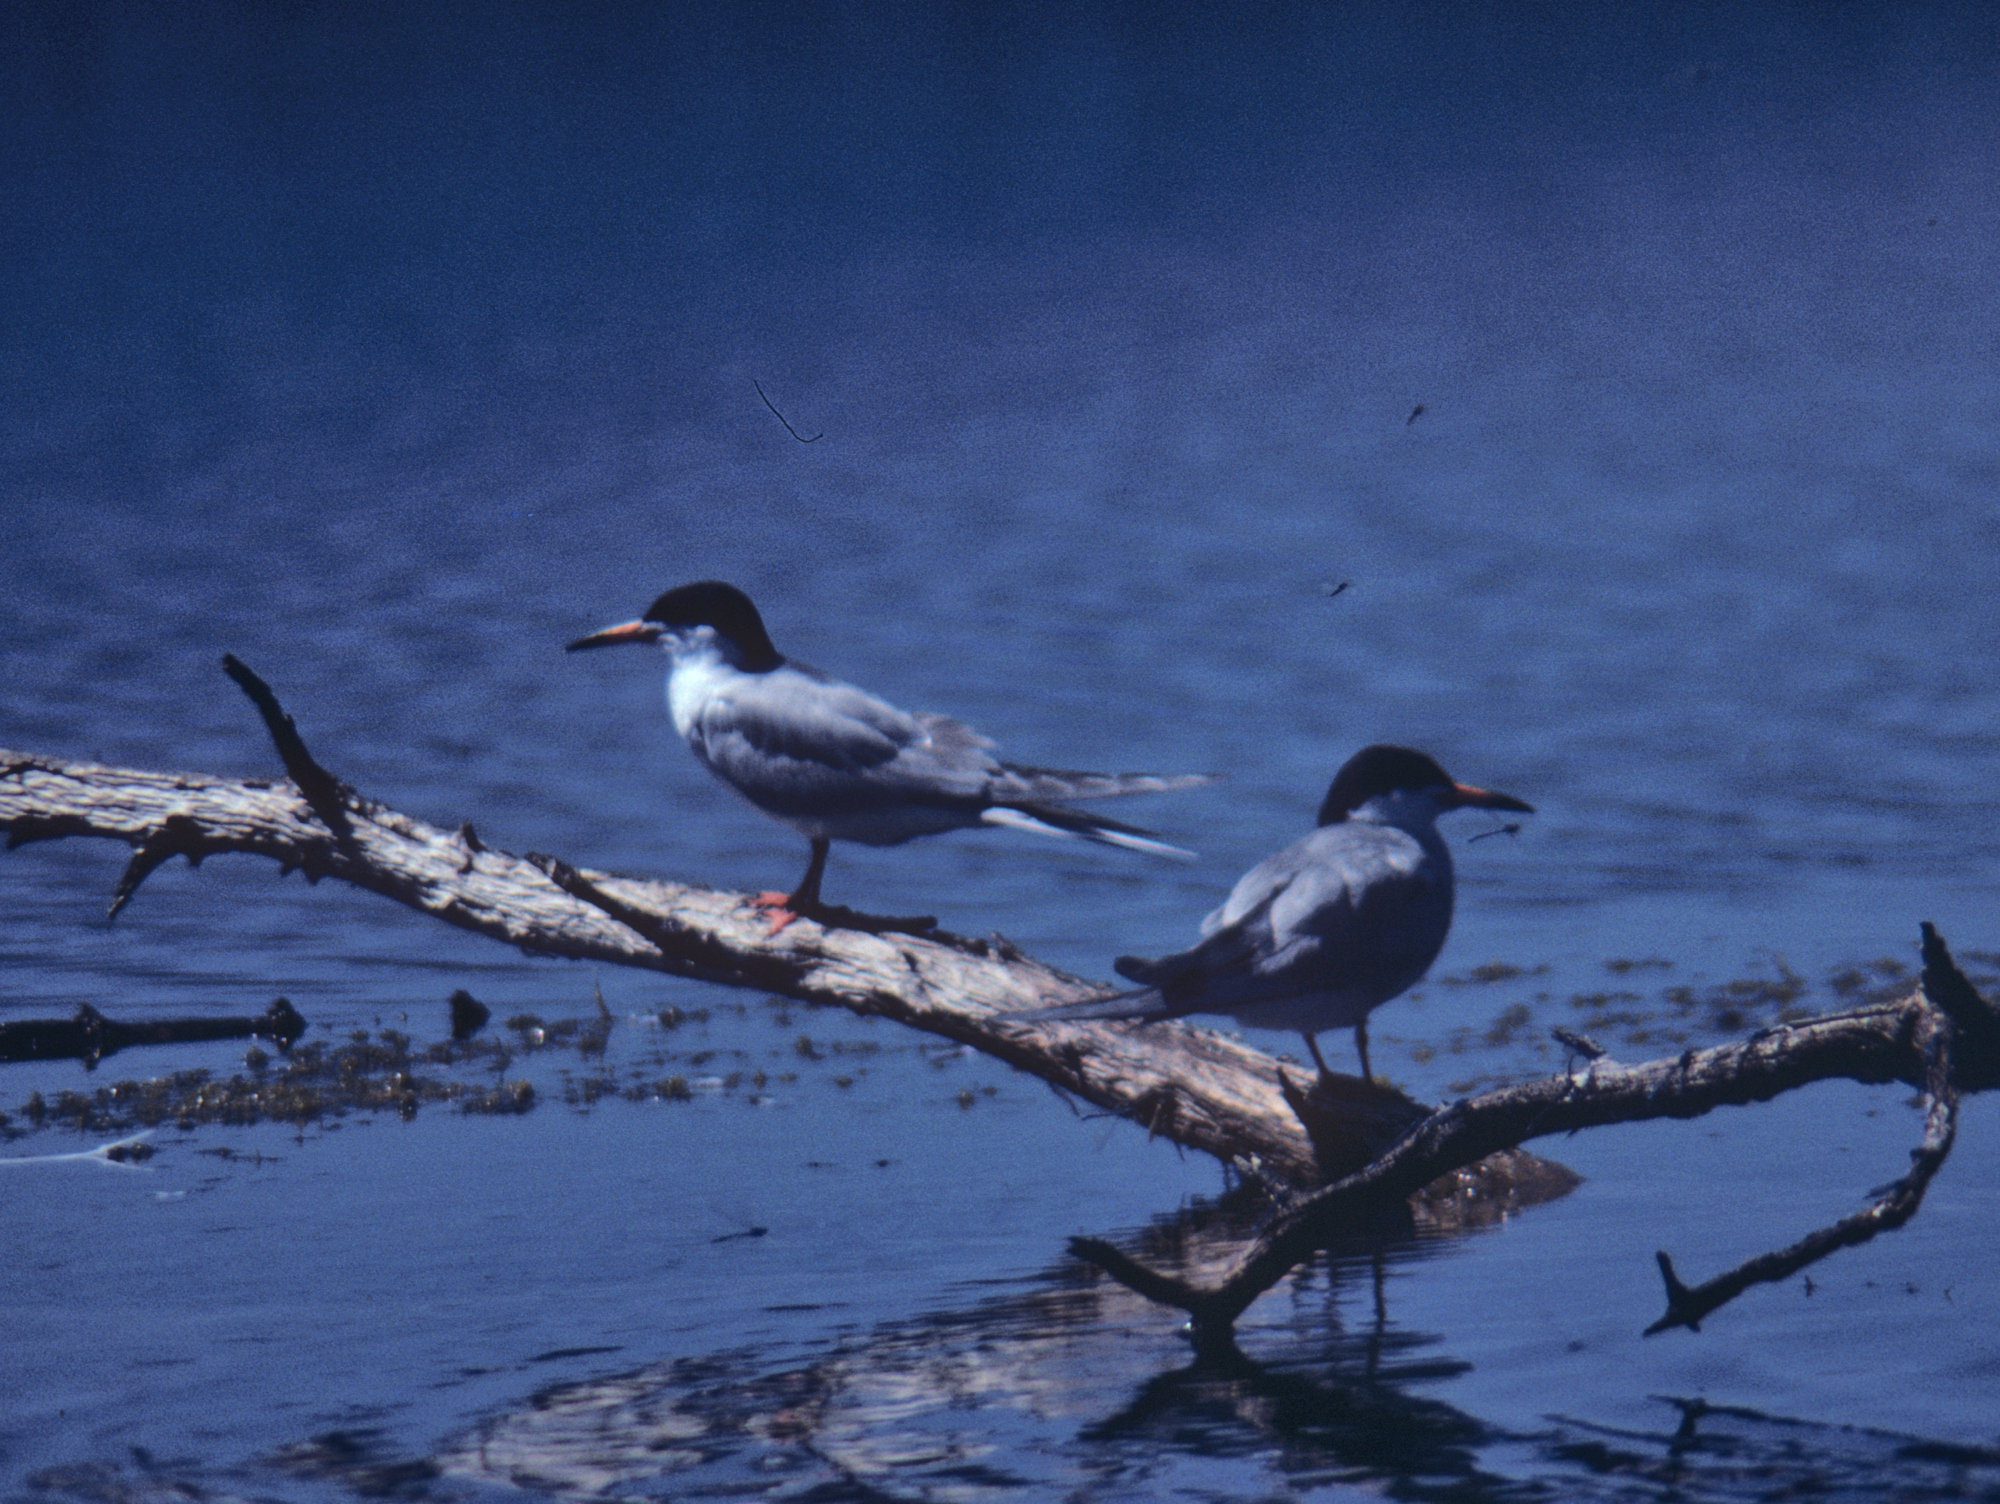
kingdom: Animalia
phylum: Chordata
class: Aves
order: Charadriiformes
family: Laridae
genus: Sterna
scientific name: Sterna forsteri
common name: Forster's tern
